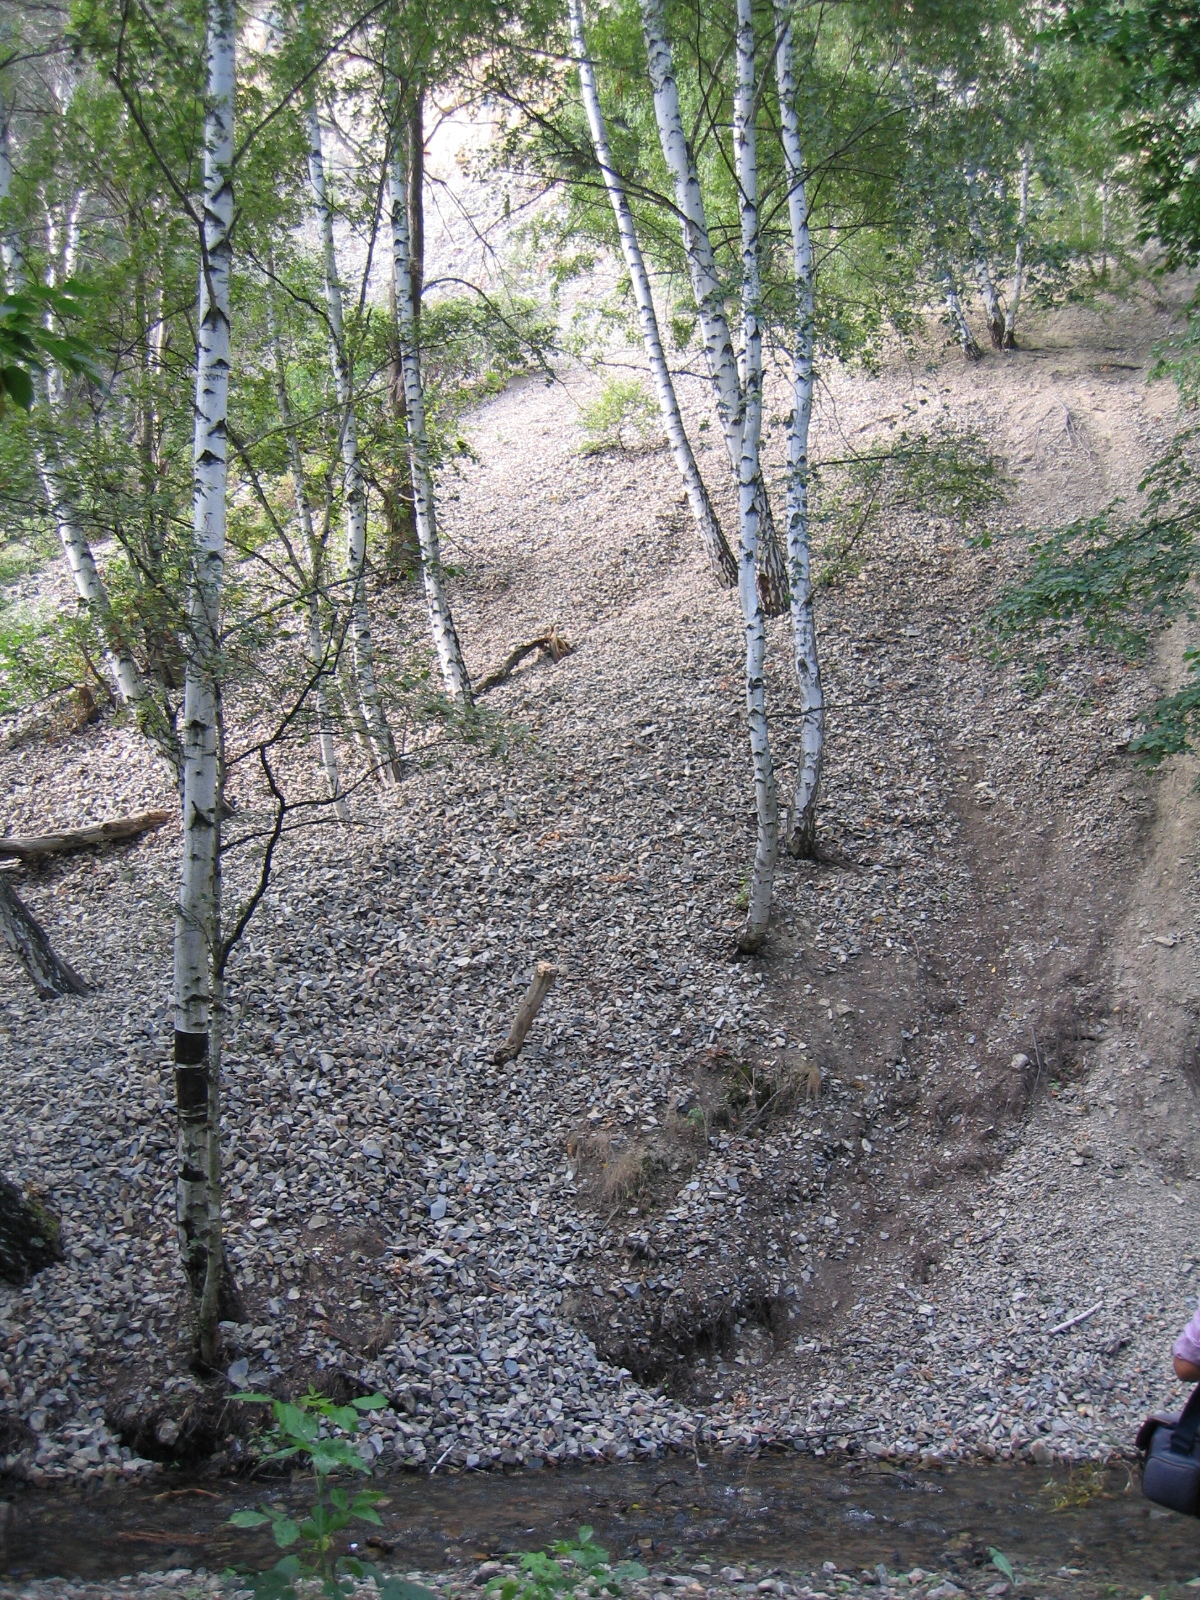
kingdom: Plantae
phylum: Tracheophyta
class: Magnoliopsida
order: Fagales
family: Betulaceae
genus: Betula
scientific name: Betula pendula
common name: Silver birch
